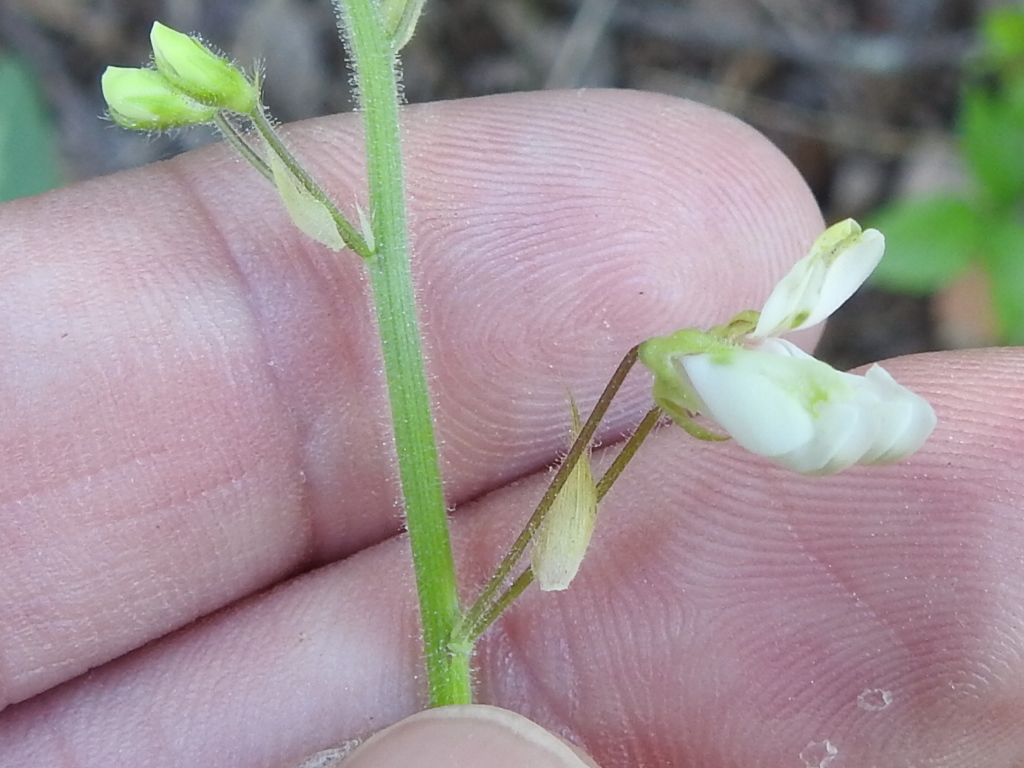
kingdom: Plantae
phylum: Tracheophyta
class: Magnoliopsida
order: Fabales
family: Fabaceae
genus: Desmodium
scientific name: Desmodium tweedyi
